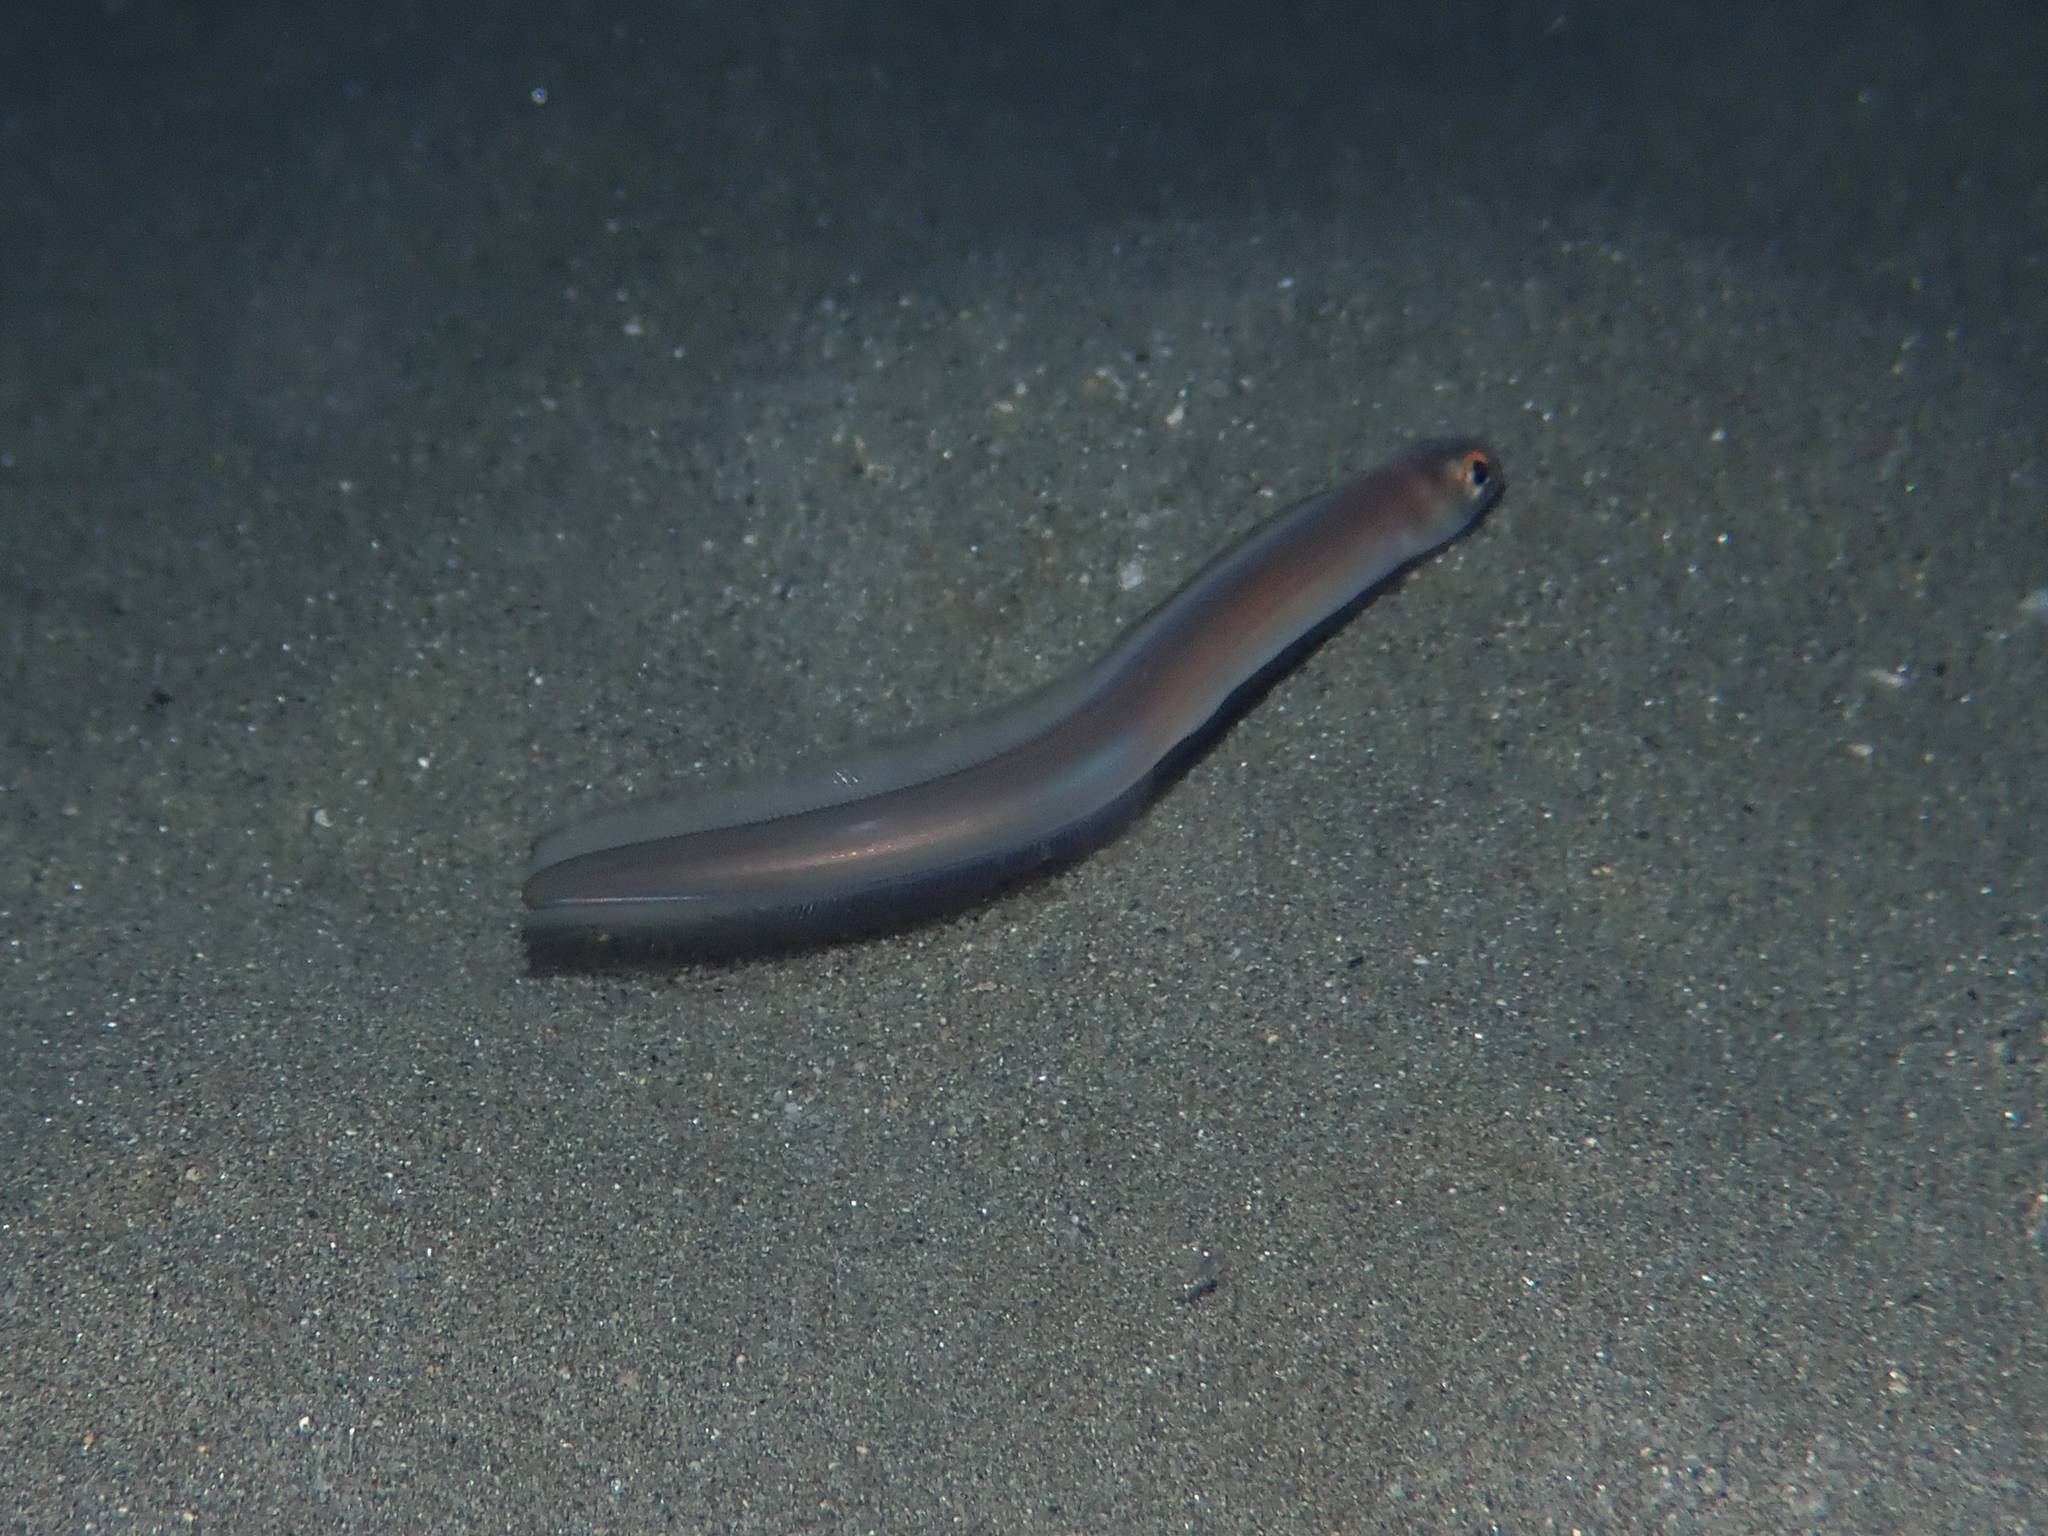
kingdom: Animalia
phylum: Chordata
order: Anguilliformes
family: Congridae
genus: Ariosoma
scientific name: Ariosoma balearicum
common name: Bandtooth conger
